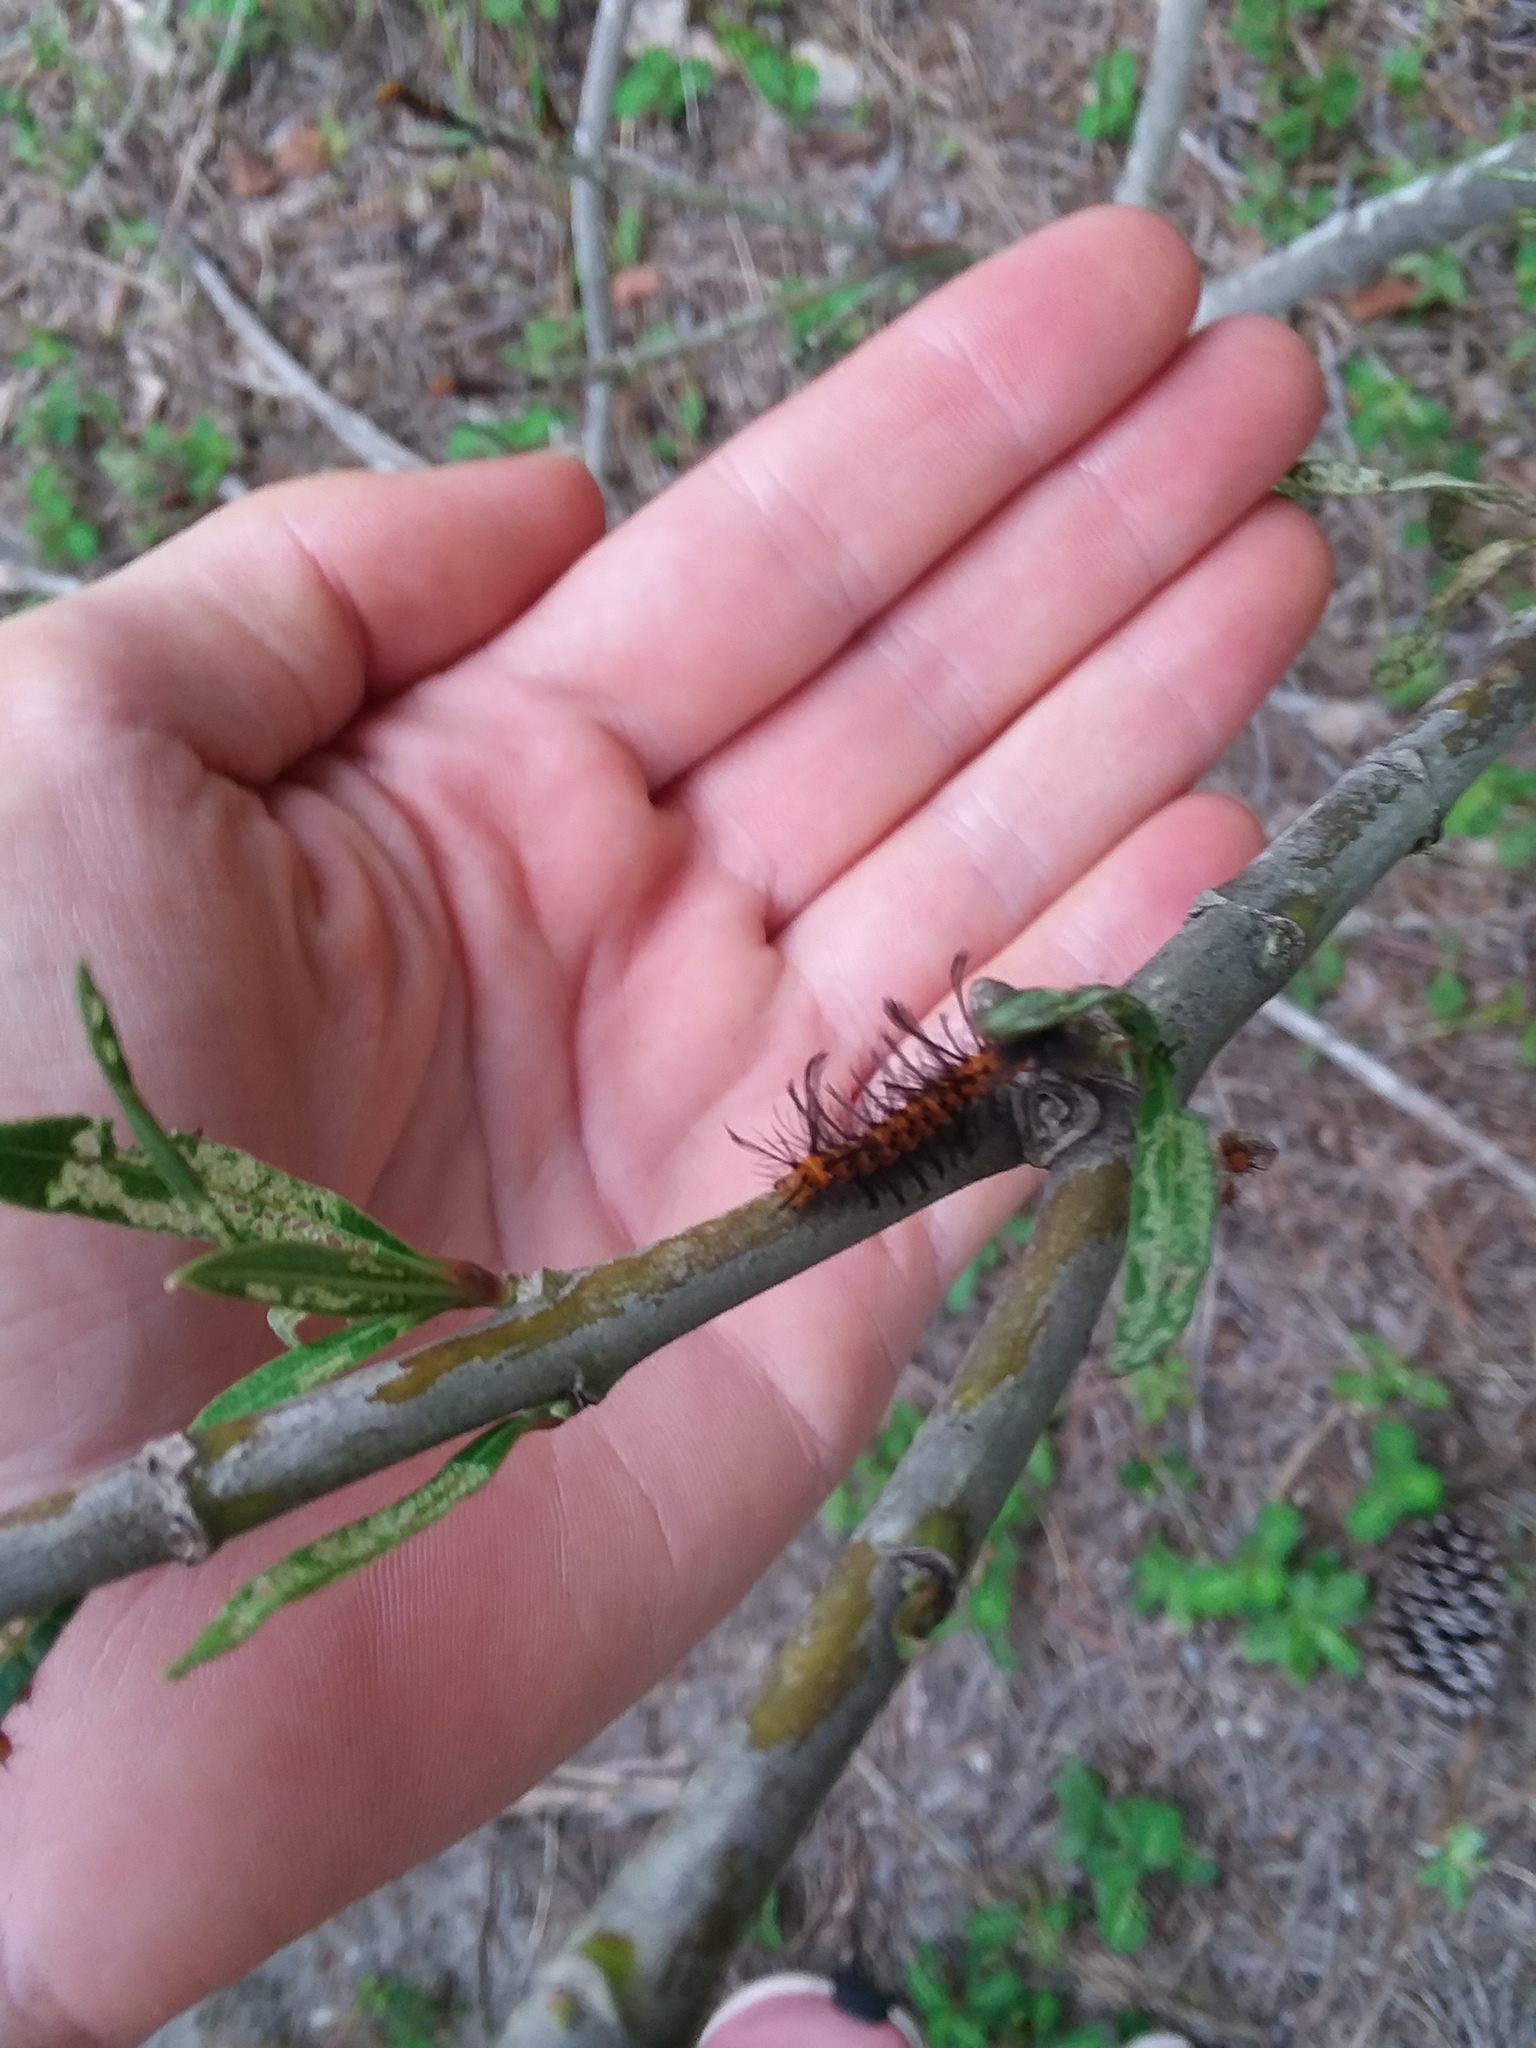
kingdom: Animalia
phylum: Arthropoda
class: Insecta
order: Lepidoptera
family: Erebidae
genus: Syntomeida
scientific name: Syntomeida epilais
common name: Polka-dot wasp moth
